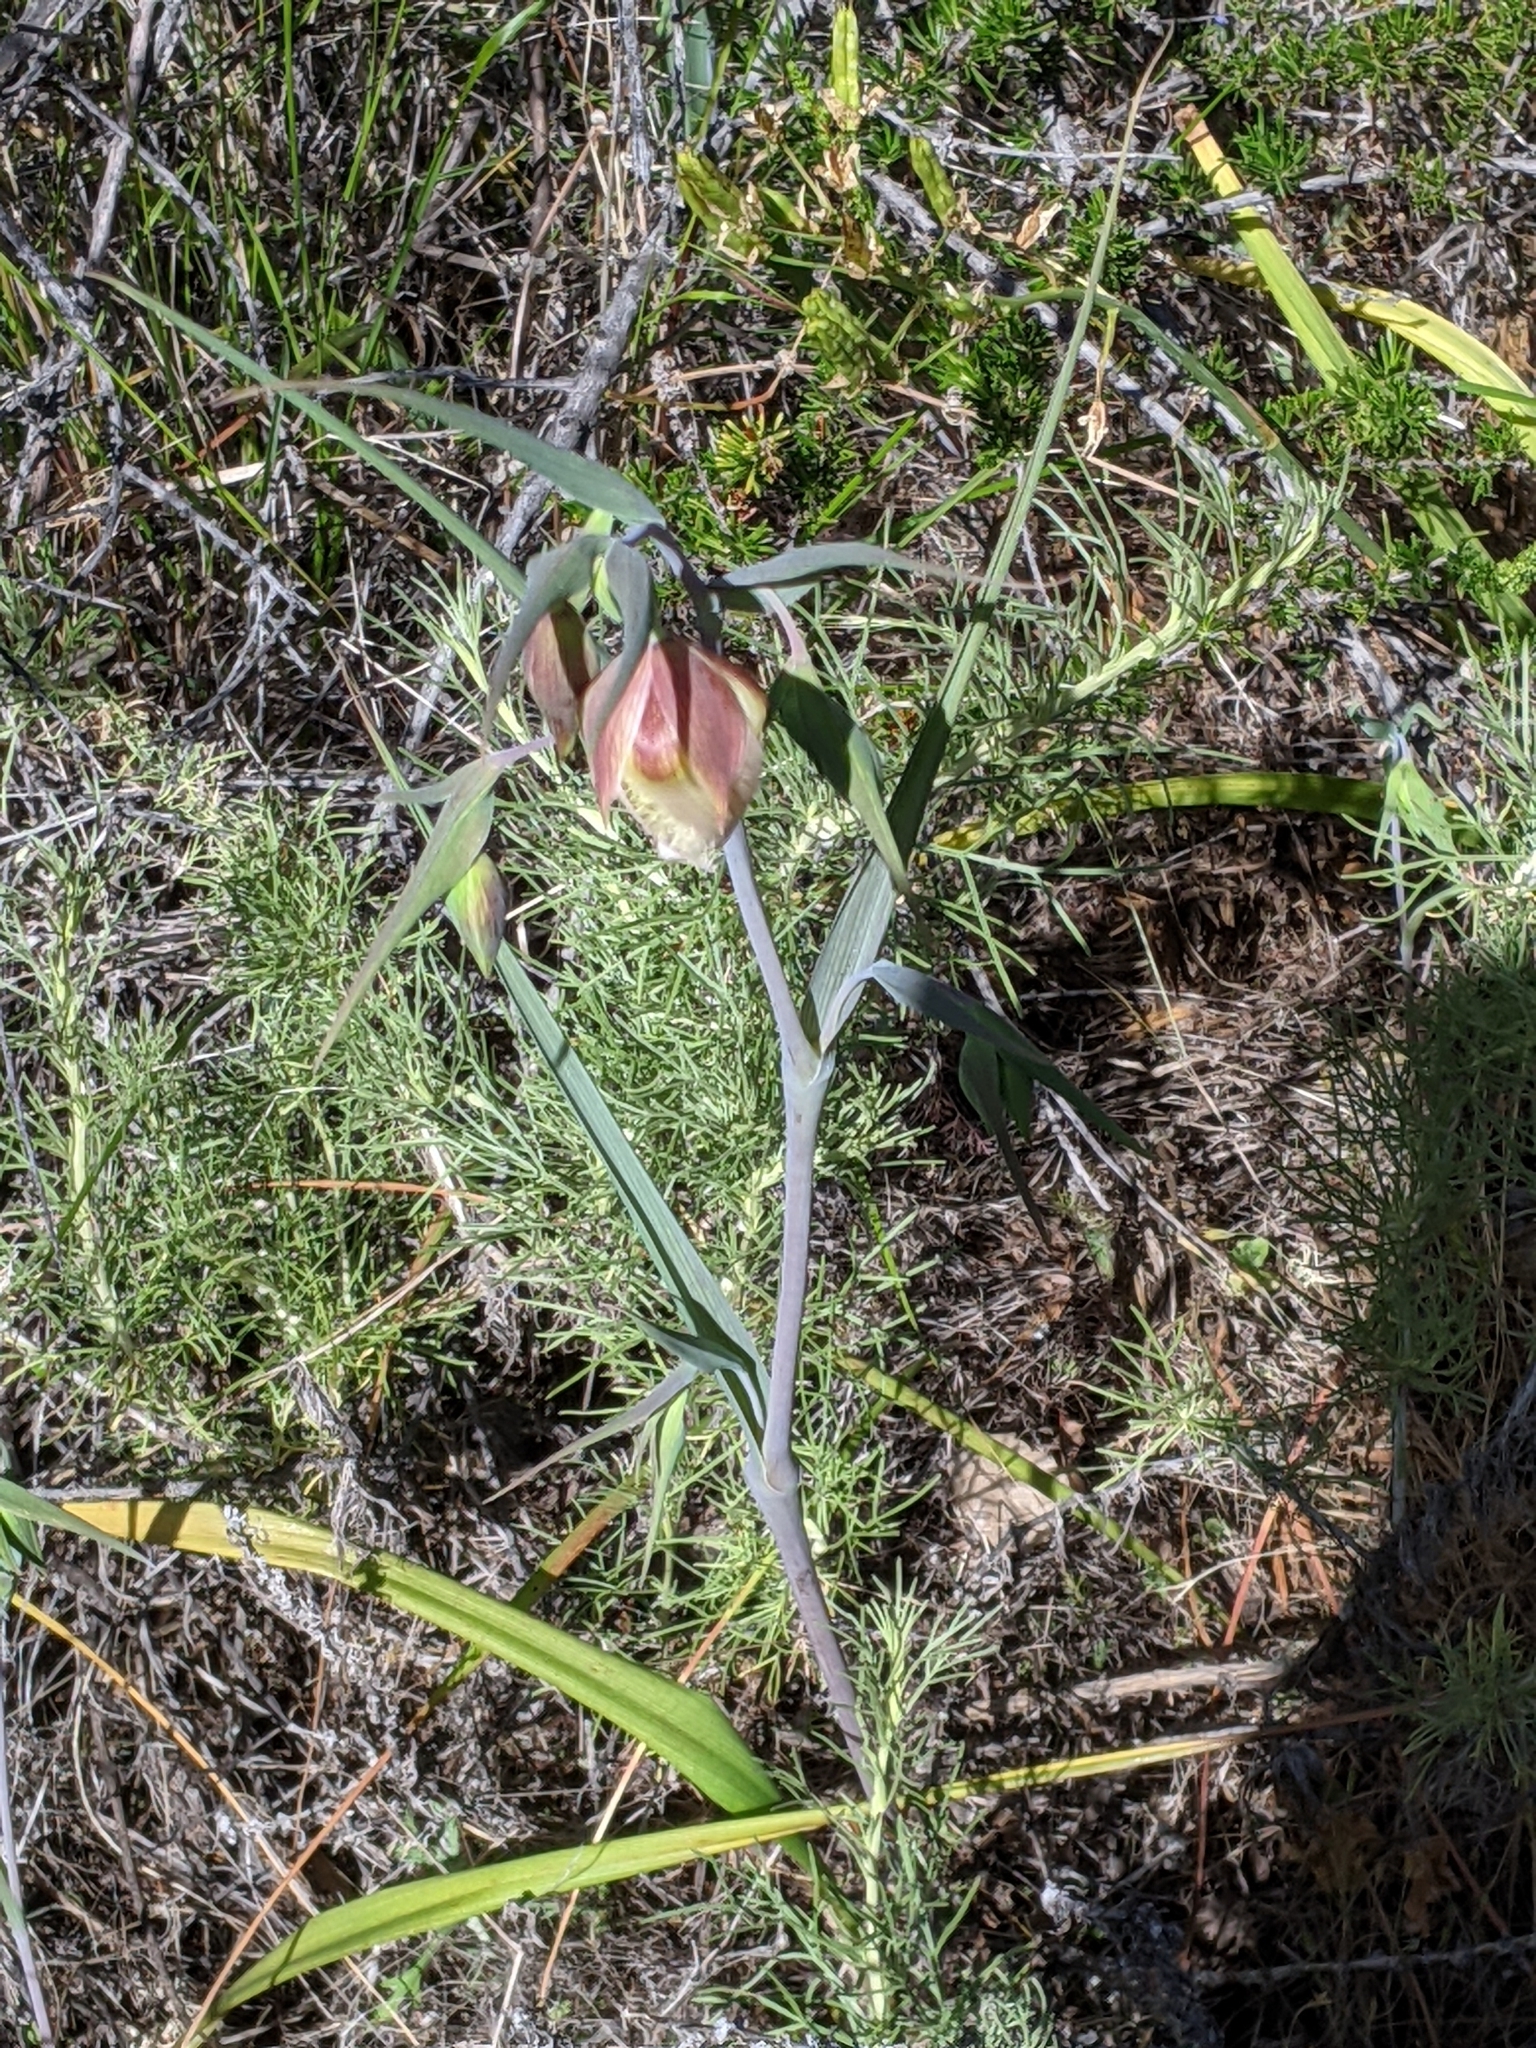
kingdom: Plantae
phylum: Tracheophyta
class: Liliopsida
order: Liliales
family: Liliaceae
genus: Calochortus
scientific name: Calochortus albus
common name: Fairy-lantern
